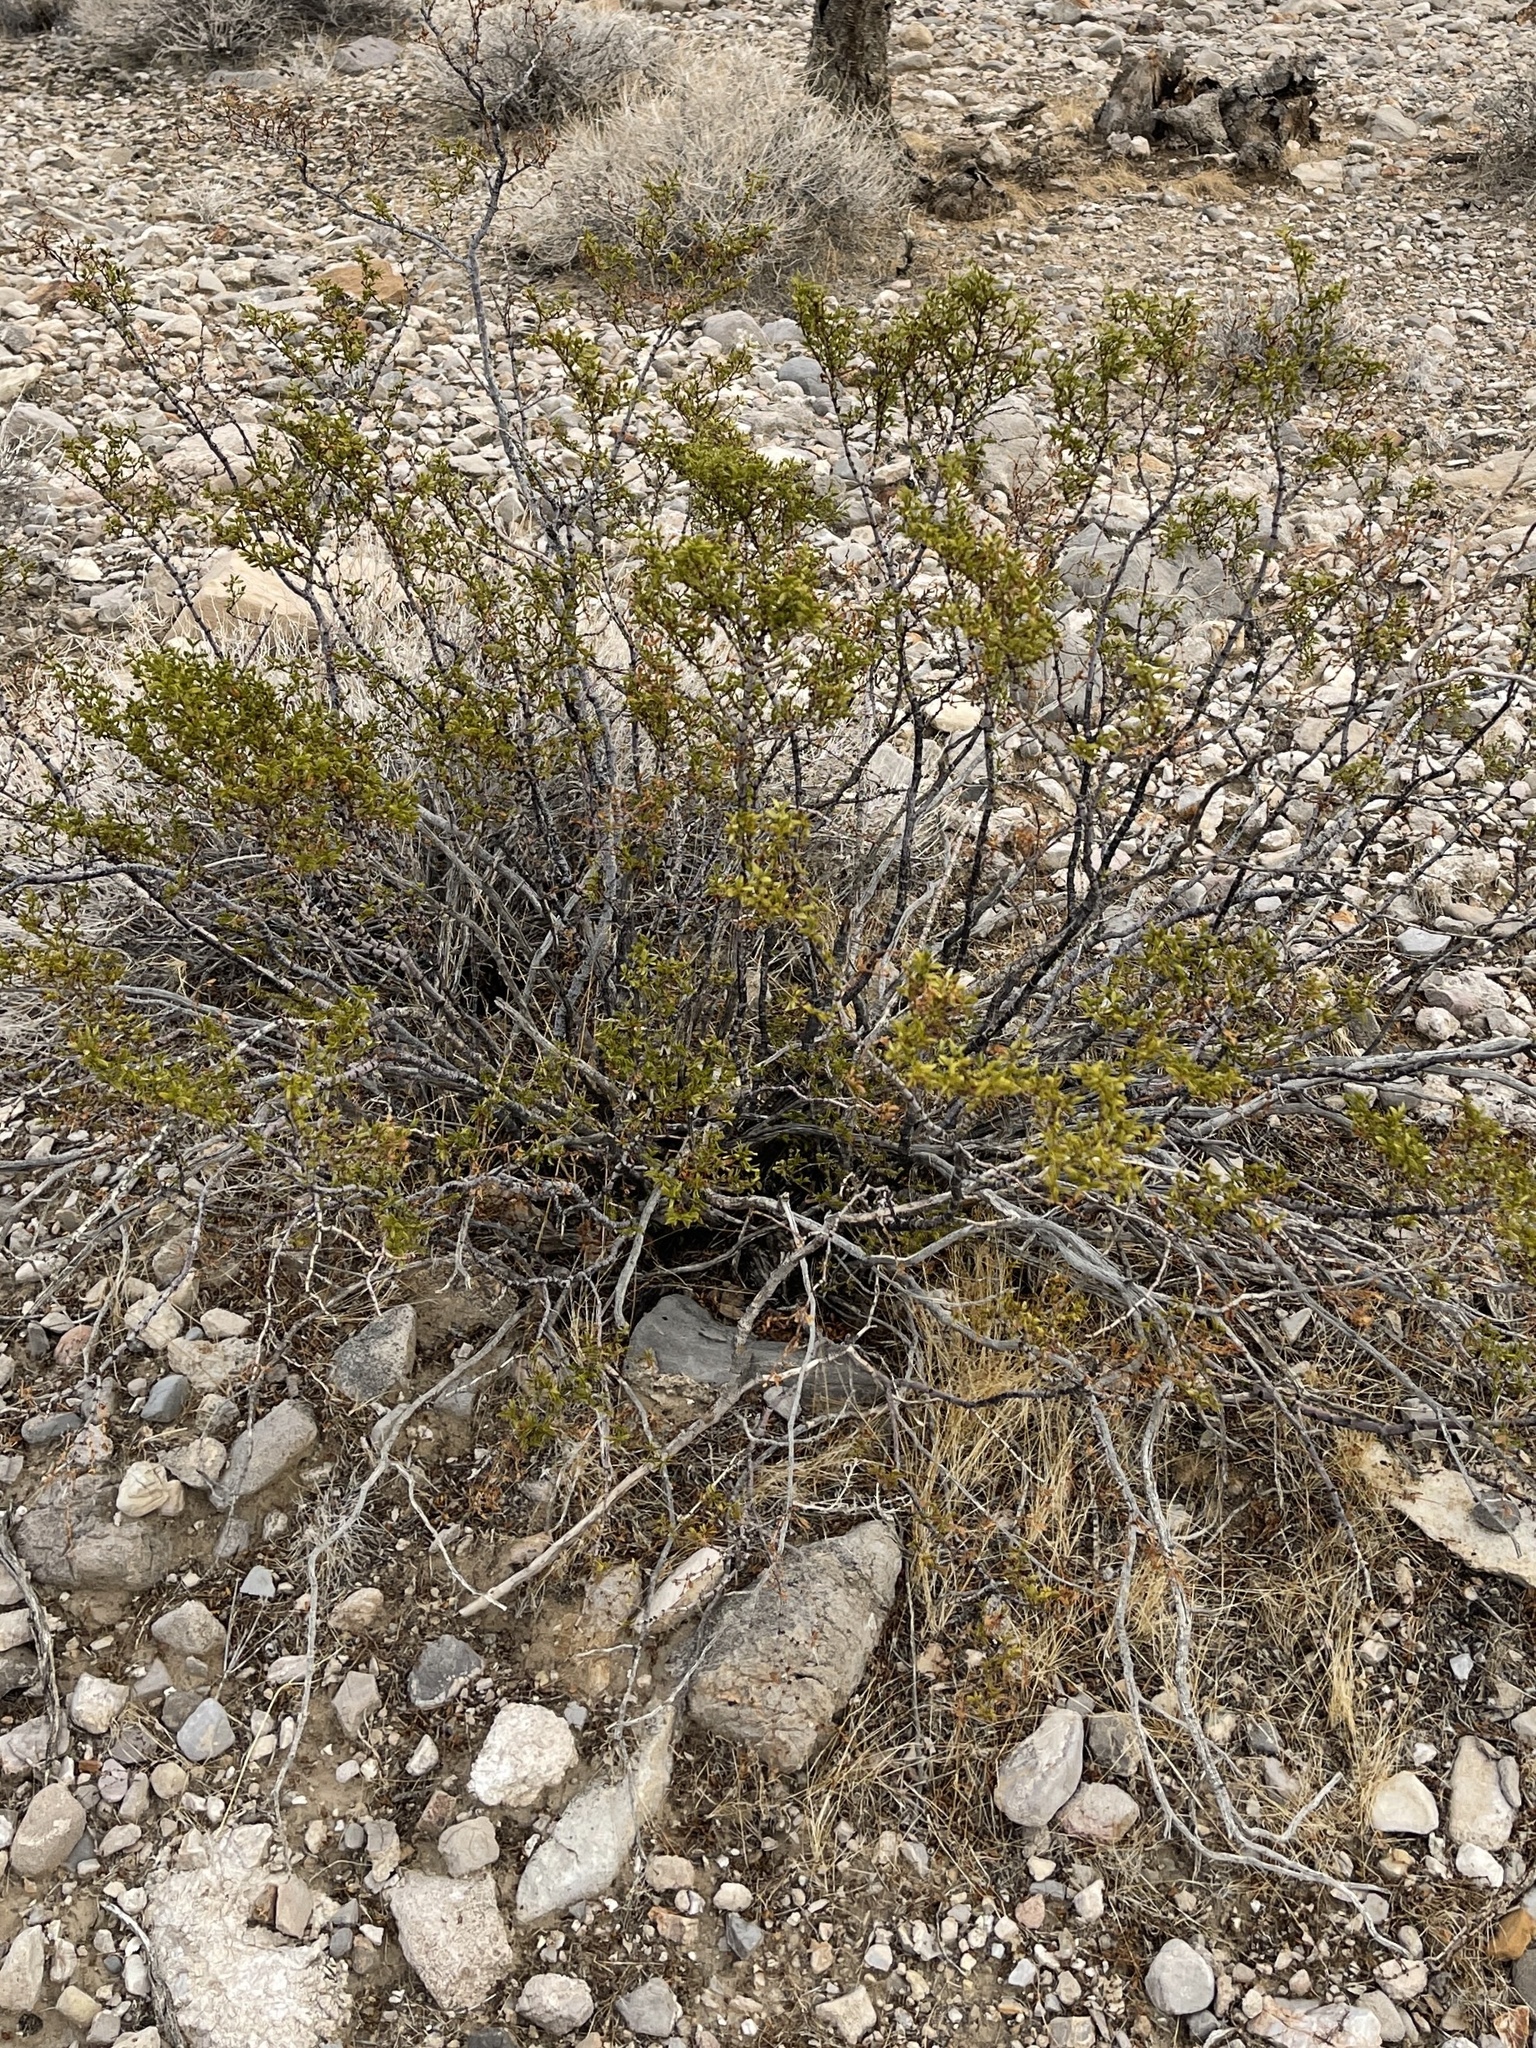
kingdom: Plantae
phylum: Tracheophyta
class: Magnoliopsida
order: Zygophyllales
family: Zygophyllaceae
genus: Larrea
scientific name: Larrea tridentata
